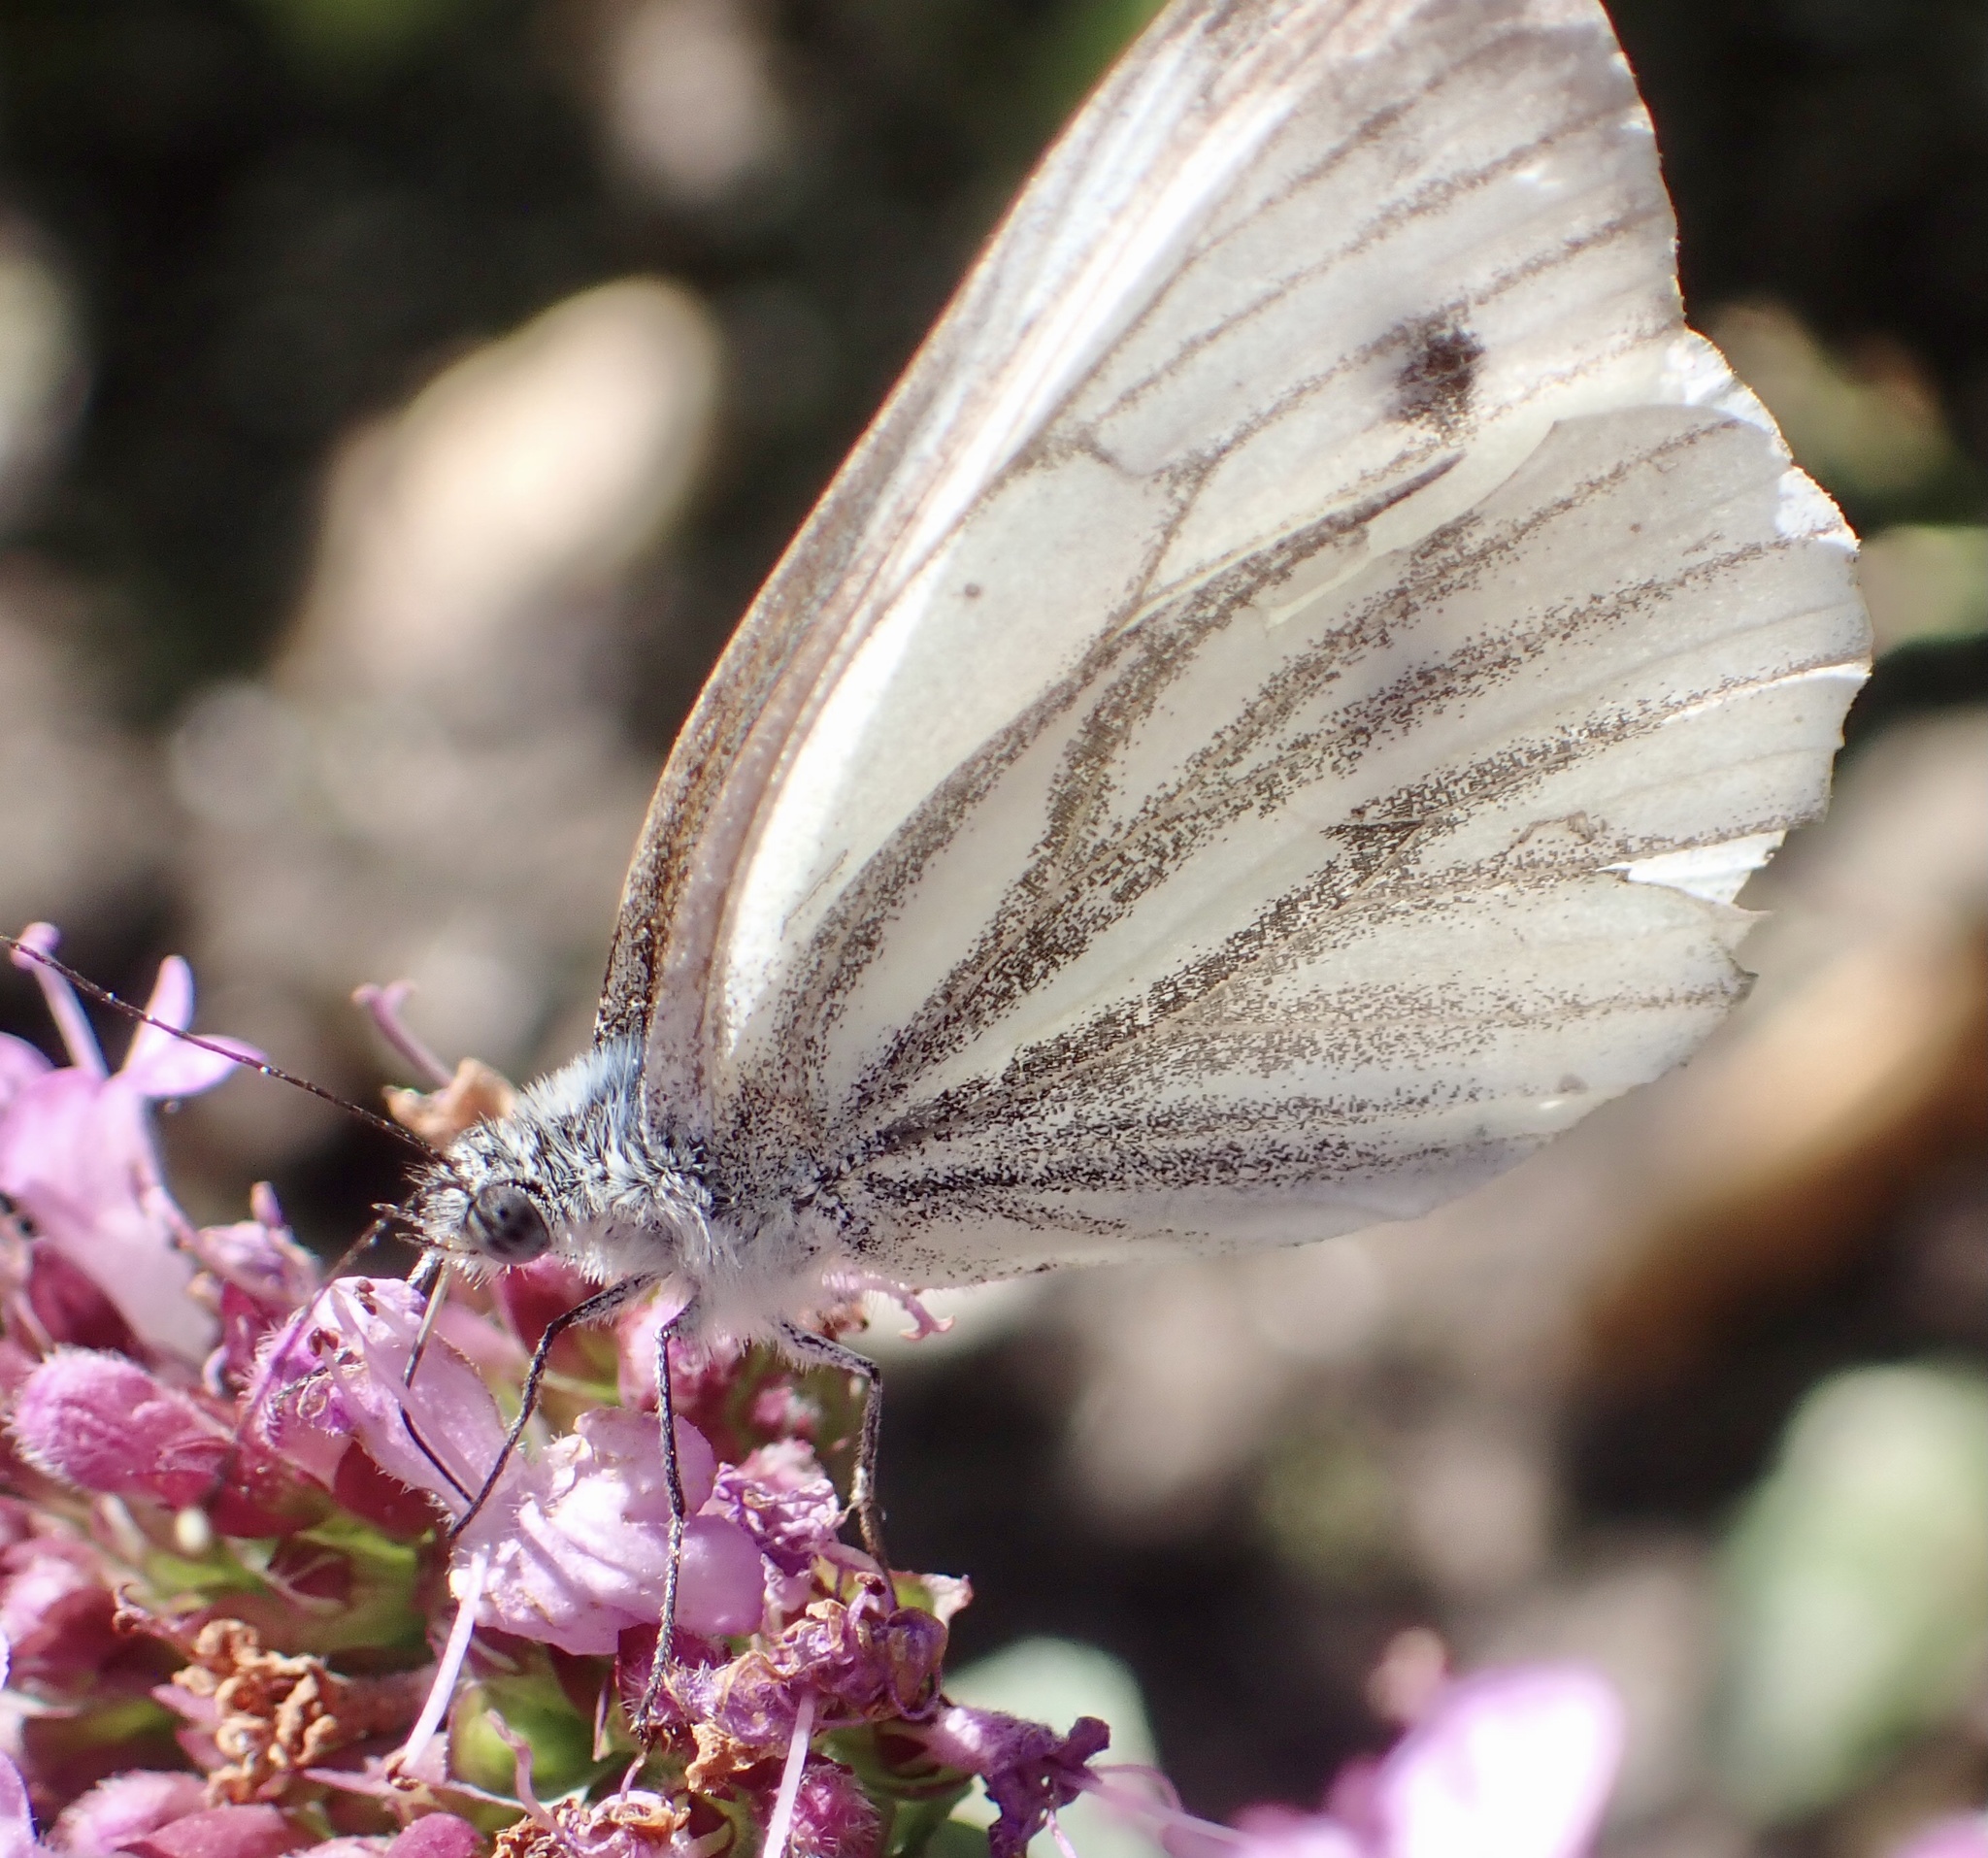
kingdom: Animalia
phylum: Arthropoda
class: Insecta
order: Lepidoptera
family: Pieridae
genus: Pieris
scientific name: Pieris napi
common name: Green-veined white
